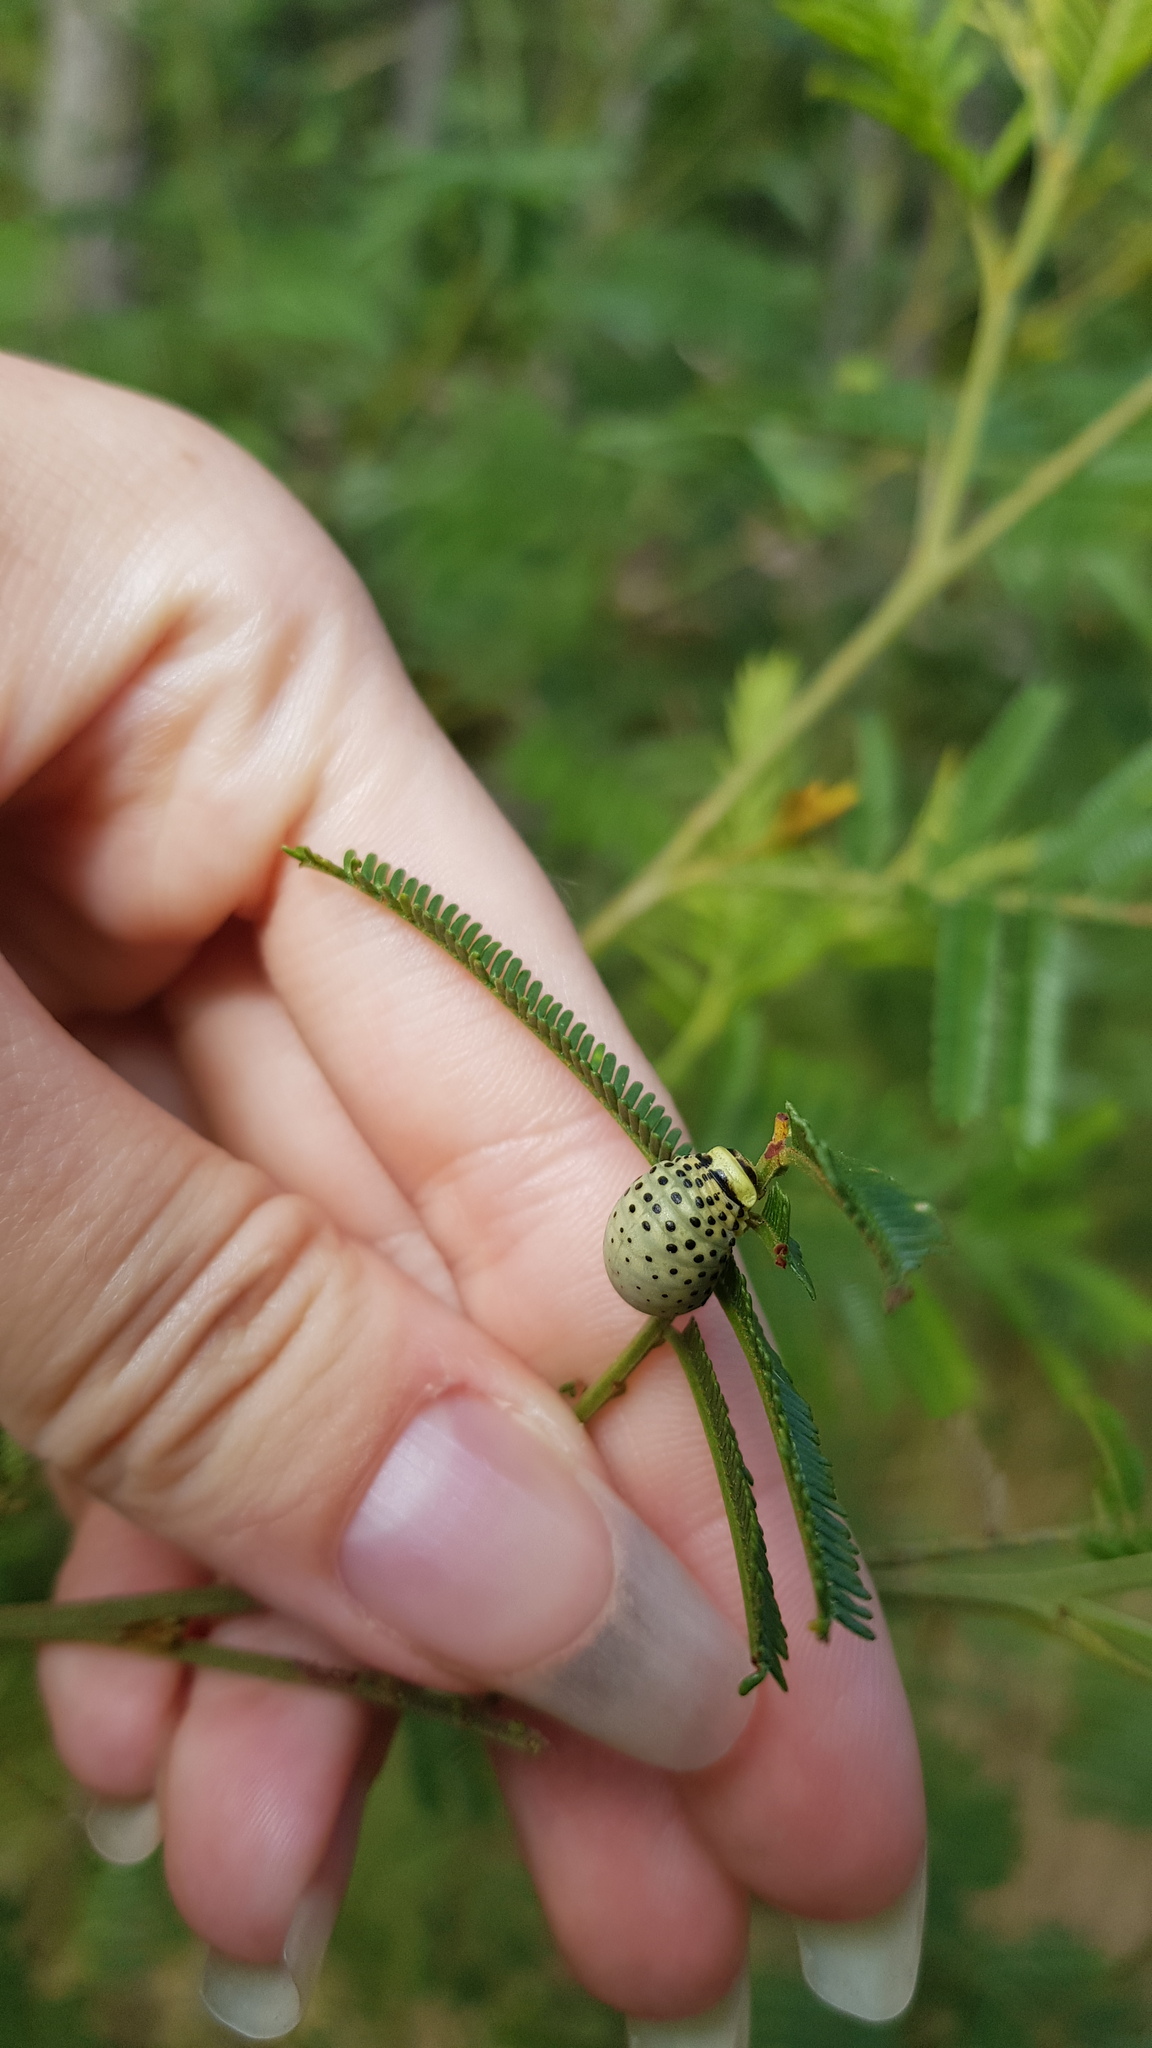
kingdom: Animalia
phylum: Arthropoda
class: Insecta
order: Coleoptera
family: Chrysomelidae
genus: Dicranosterna
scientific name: Dicranosterna
